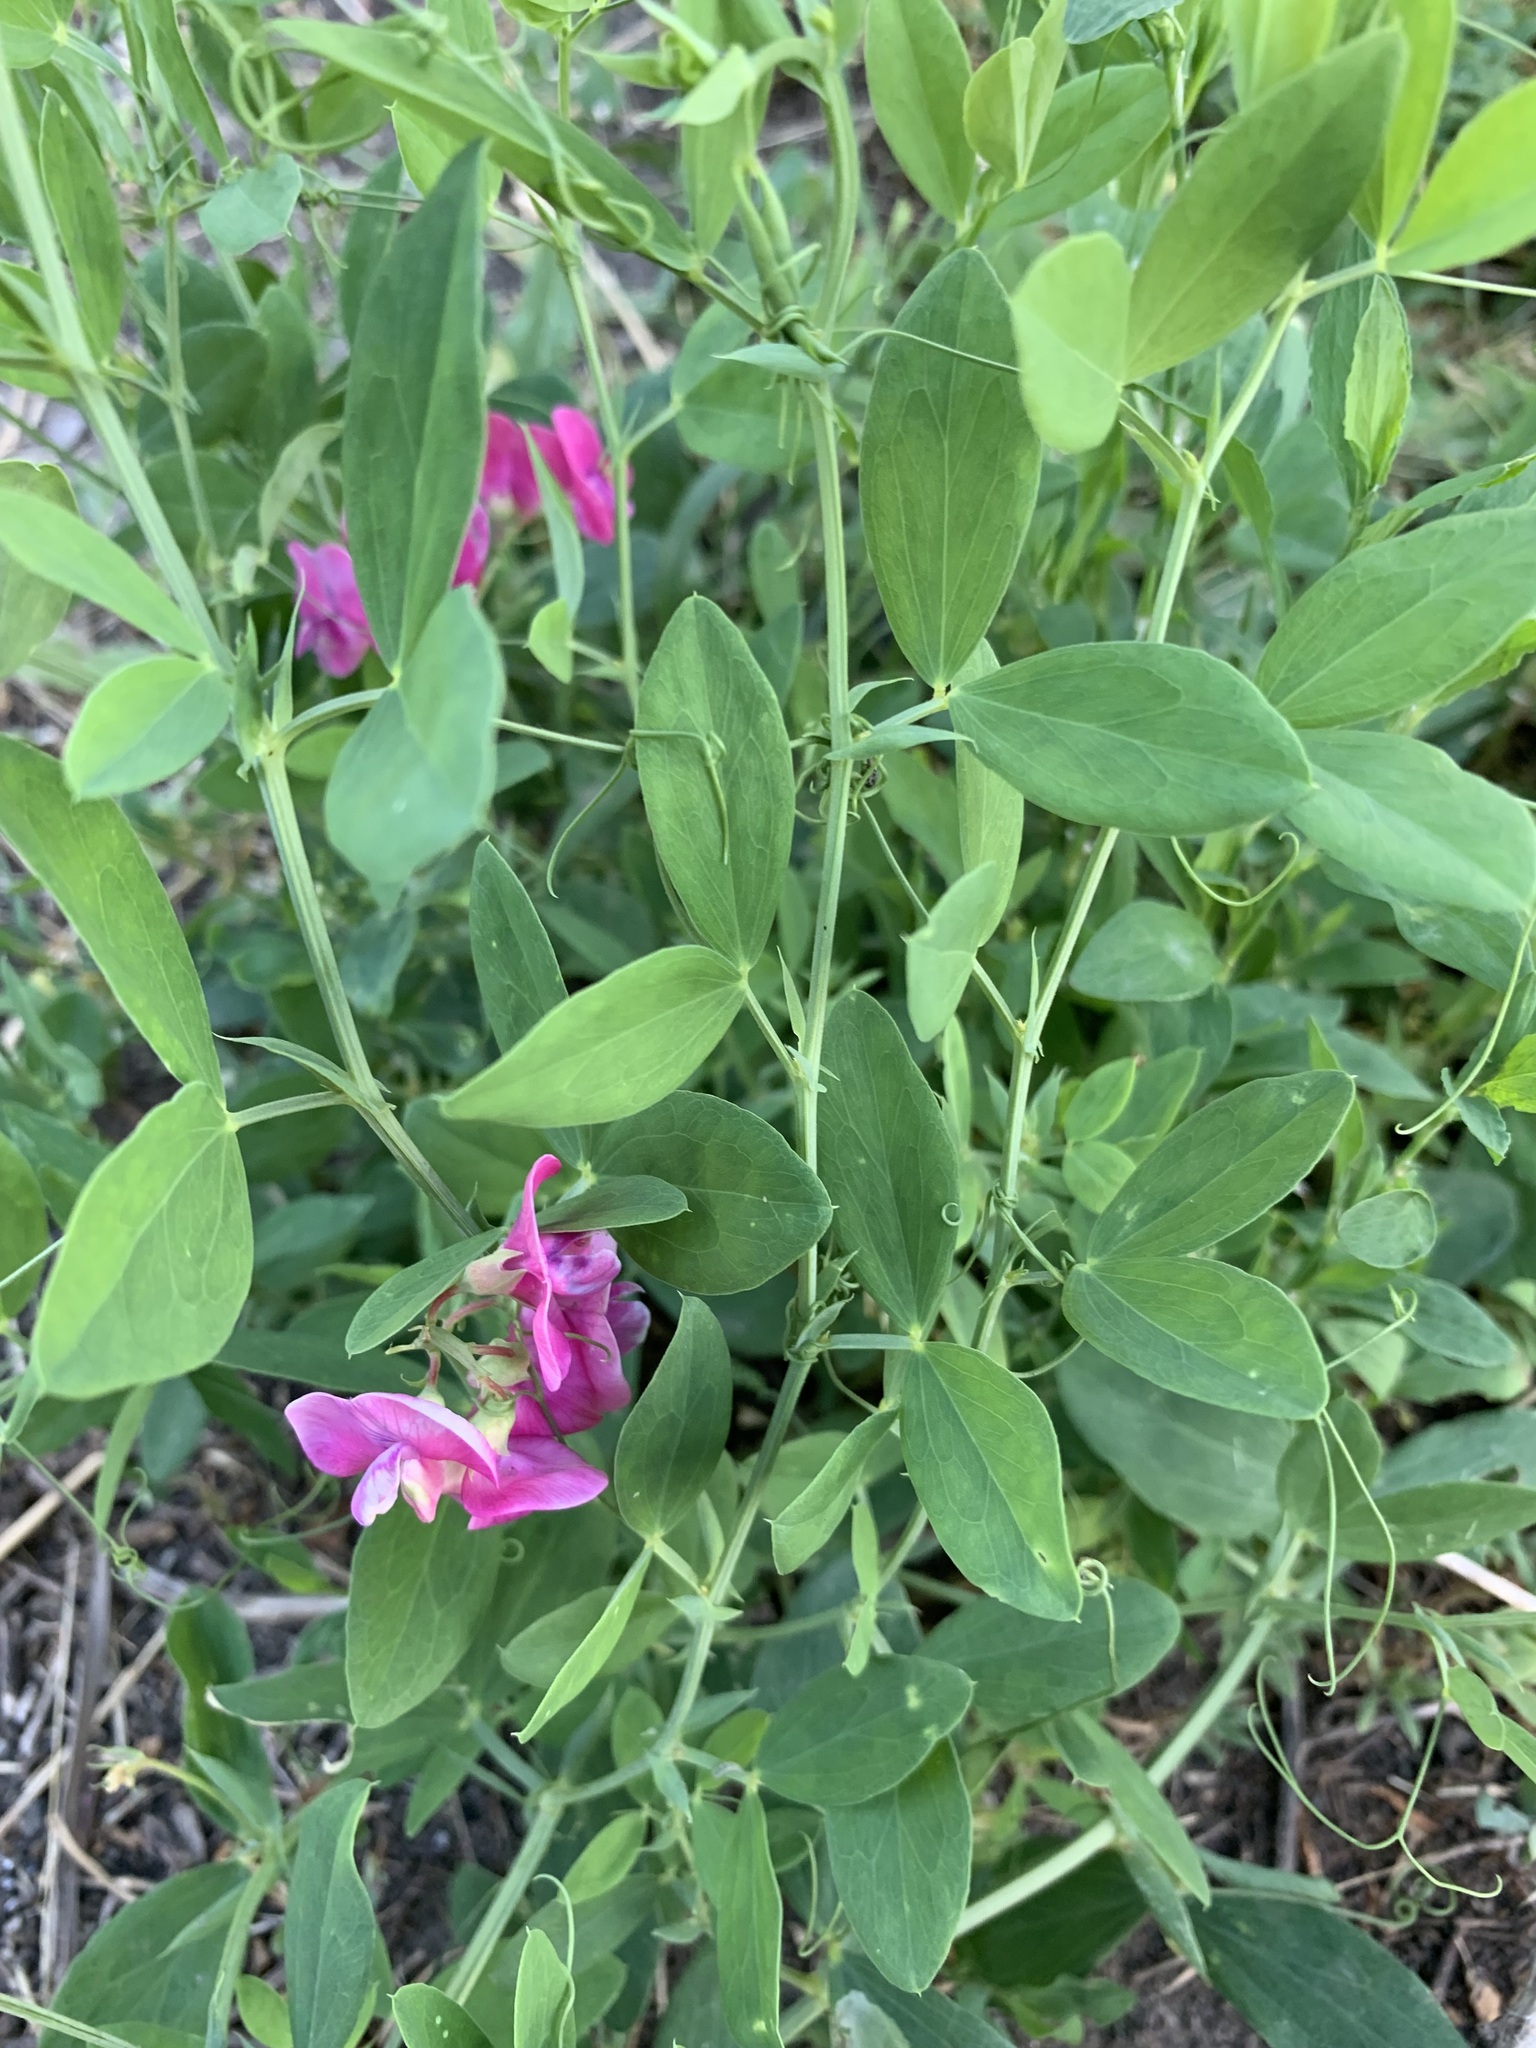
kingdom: Plantae
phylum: Tracheophyta
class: Magnoliopsida
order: Fabales
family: Fabaceae
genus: Lathyrus
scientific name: Lathyrus tuberosus
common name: Tuberous pea
